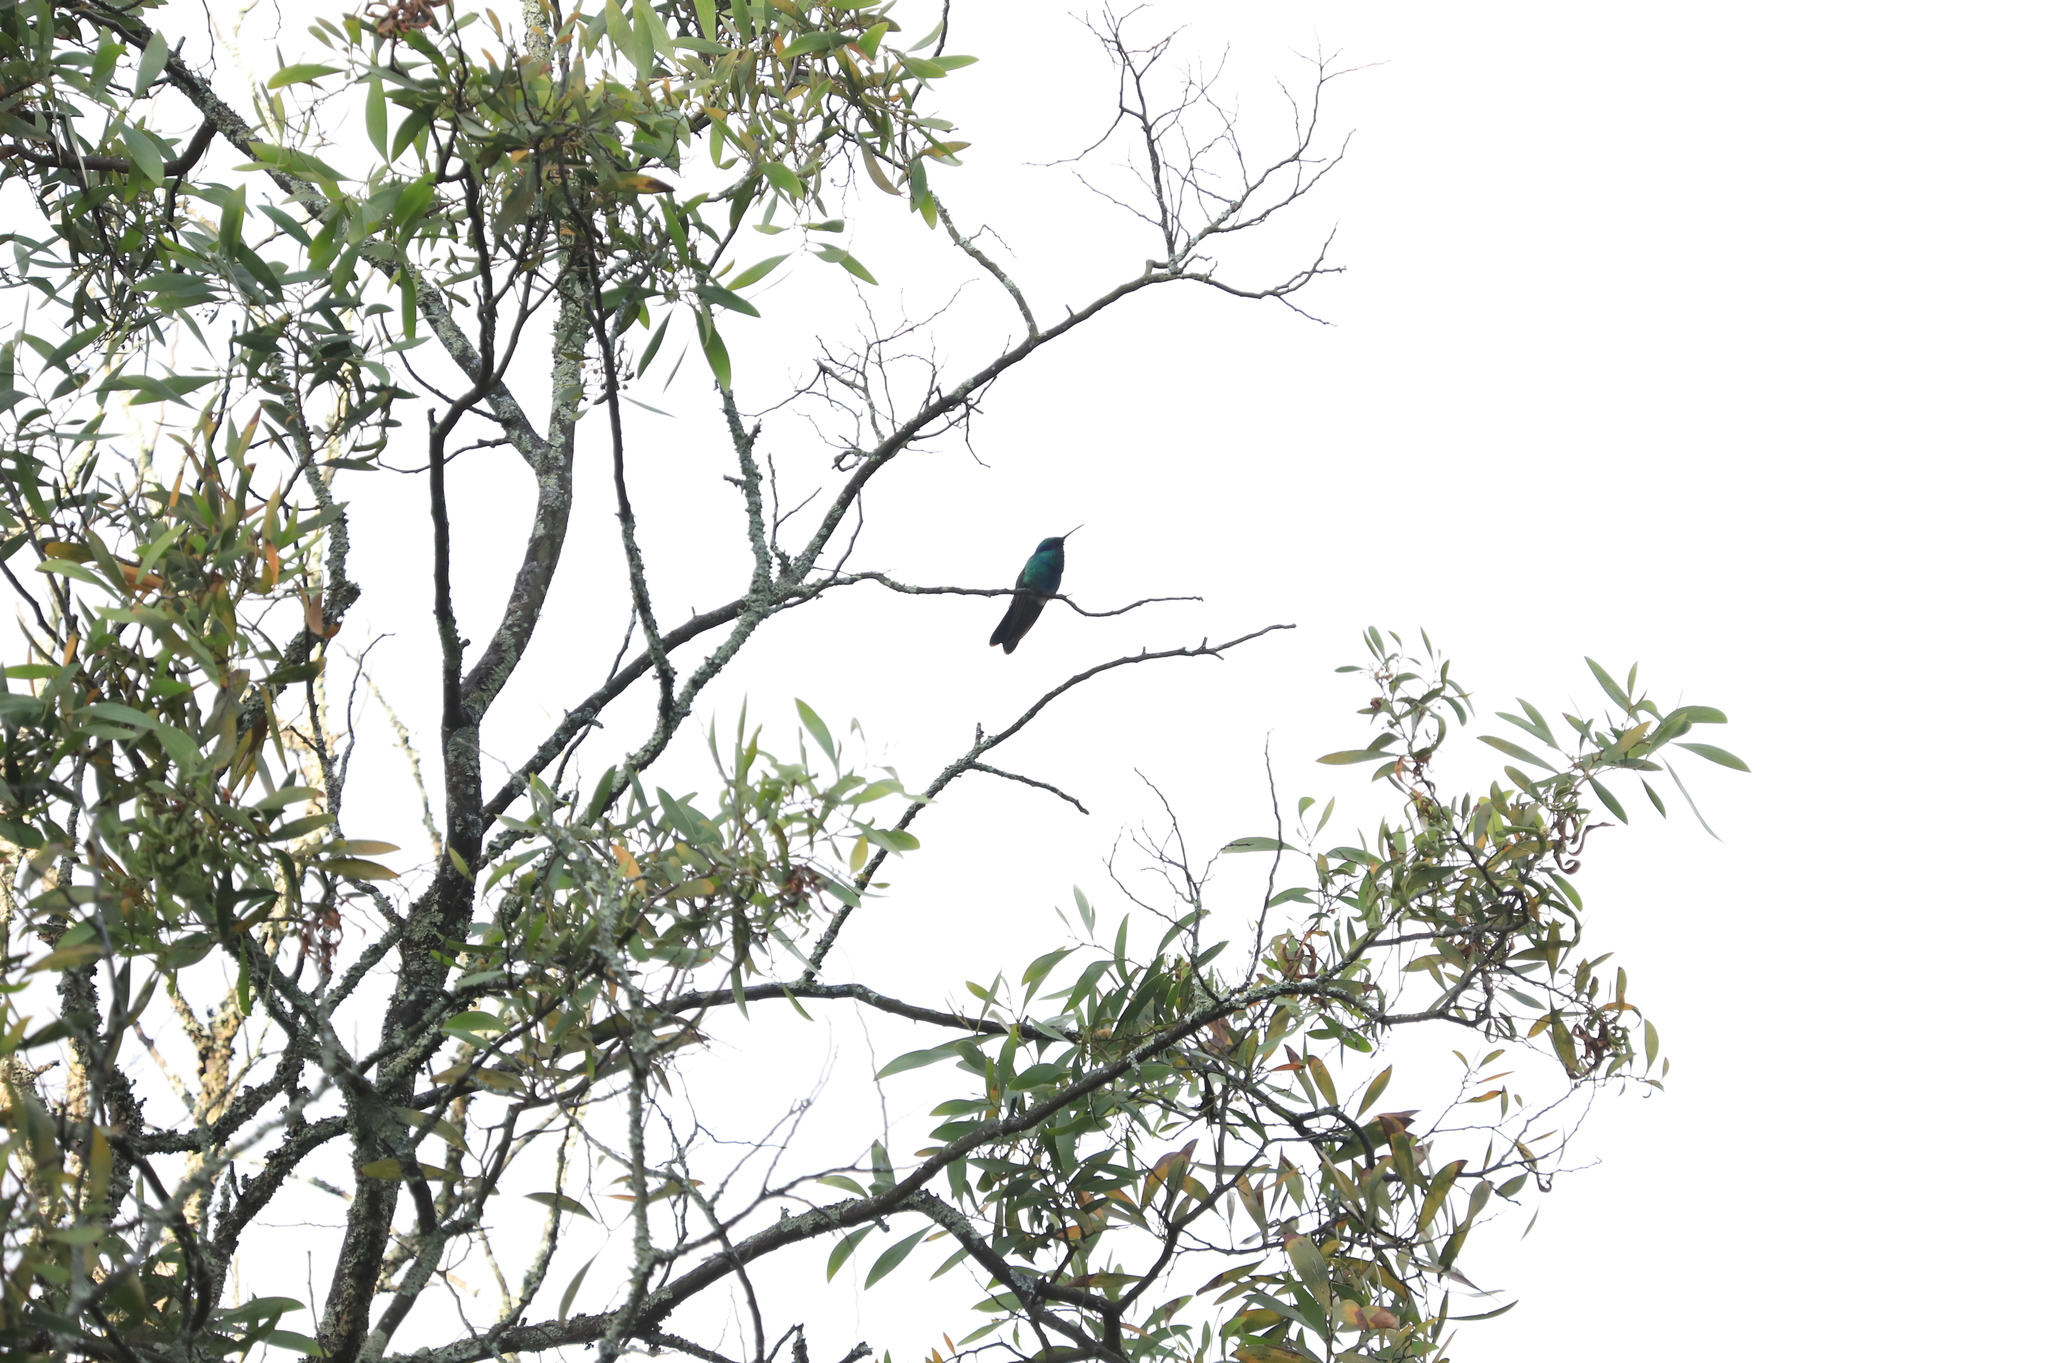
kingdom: Animalia
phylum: Chordata
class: Aves
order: Apodiformes
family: Trochilidae
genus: Colibri
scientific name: Colibri coruscans
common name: Sparkling violetear
